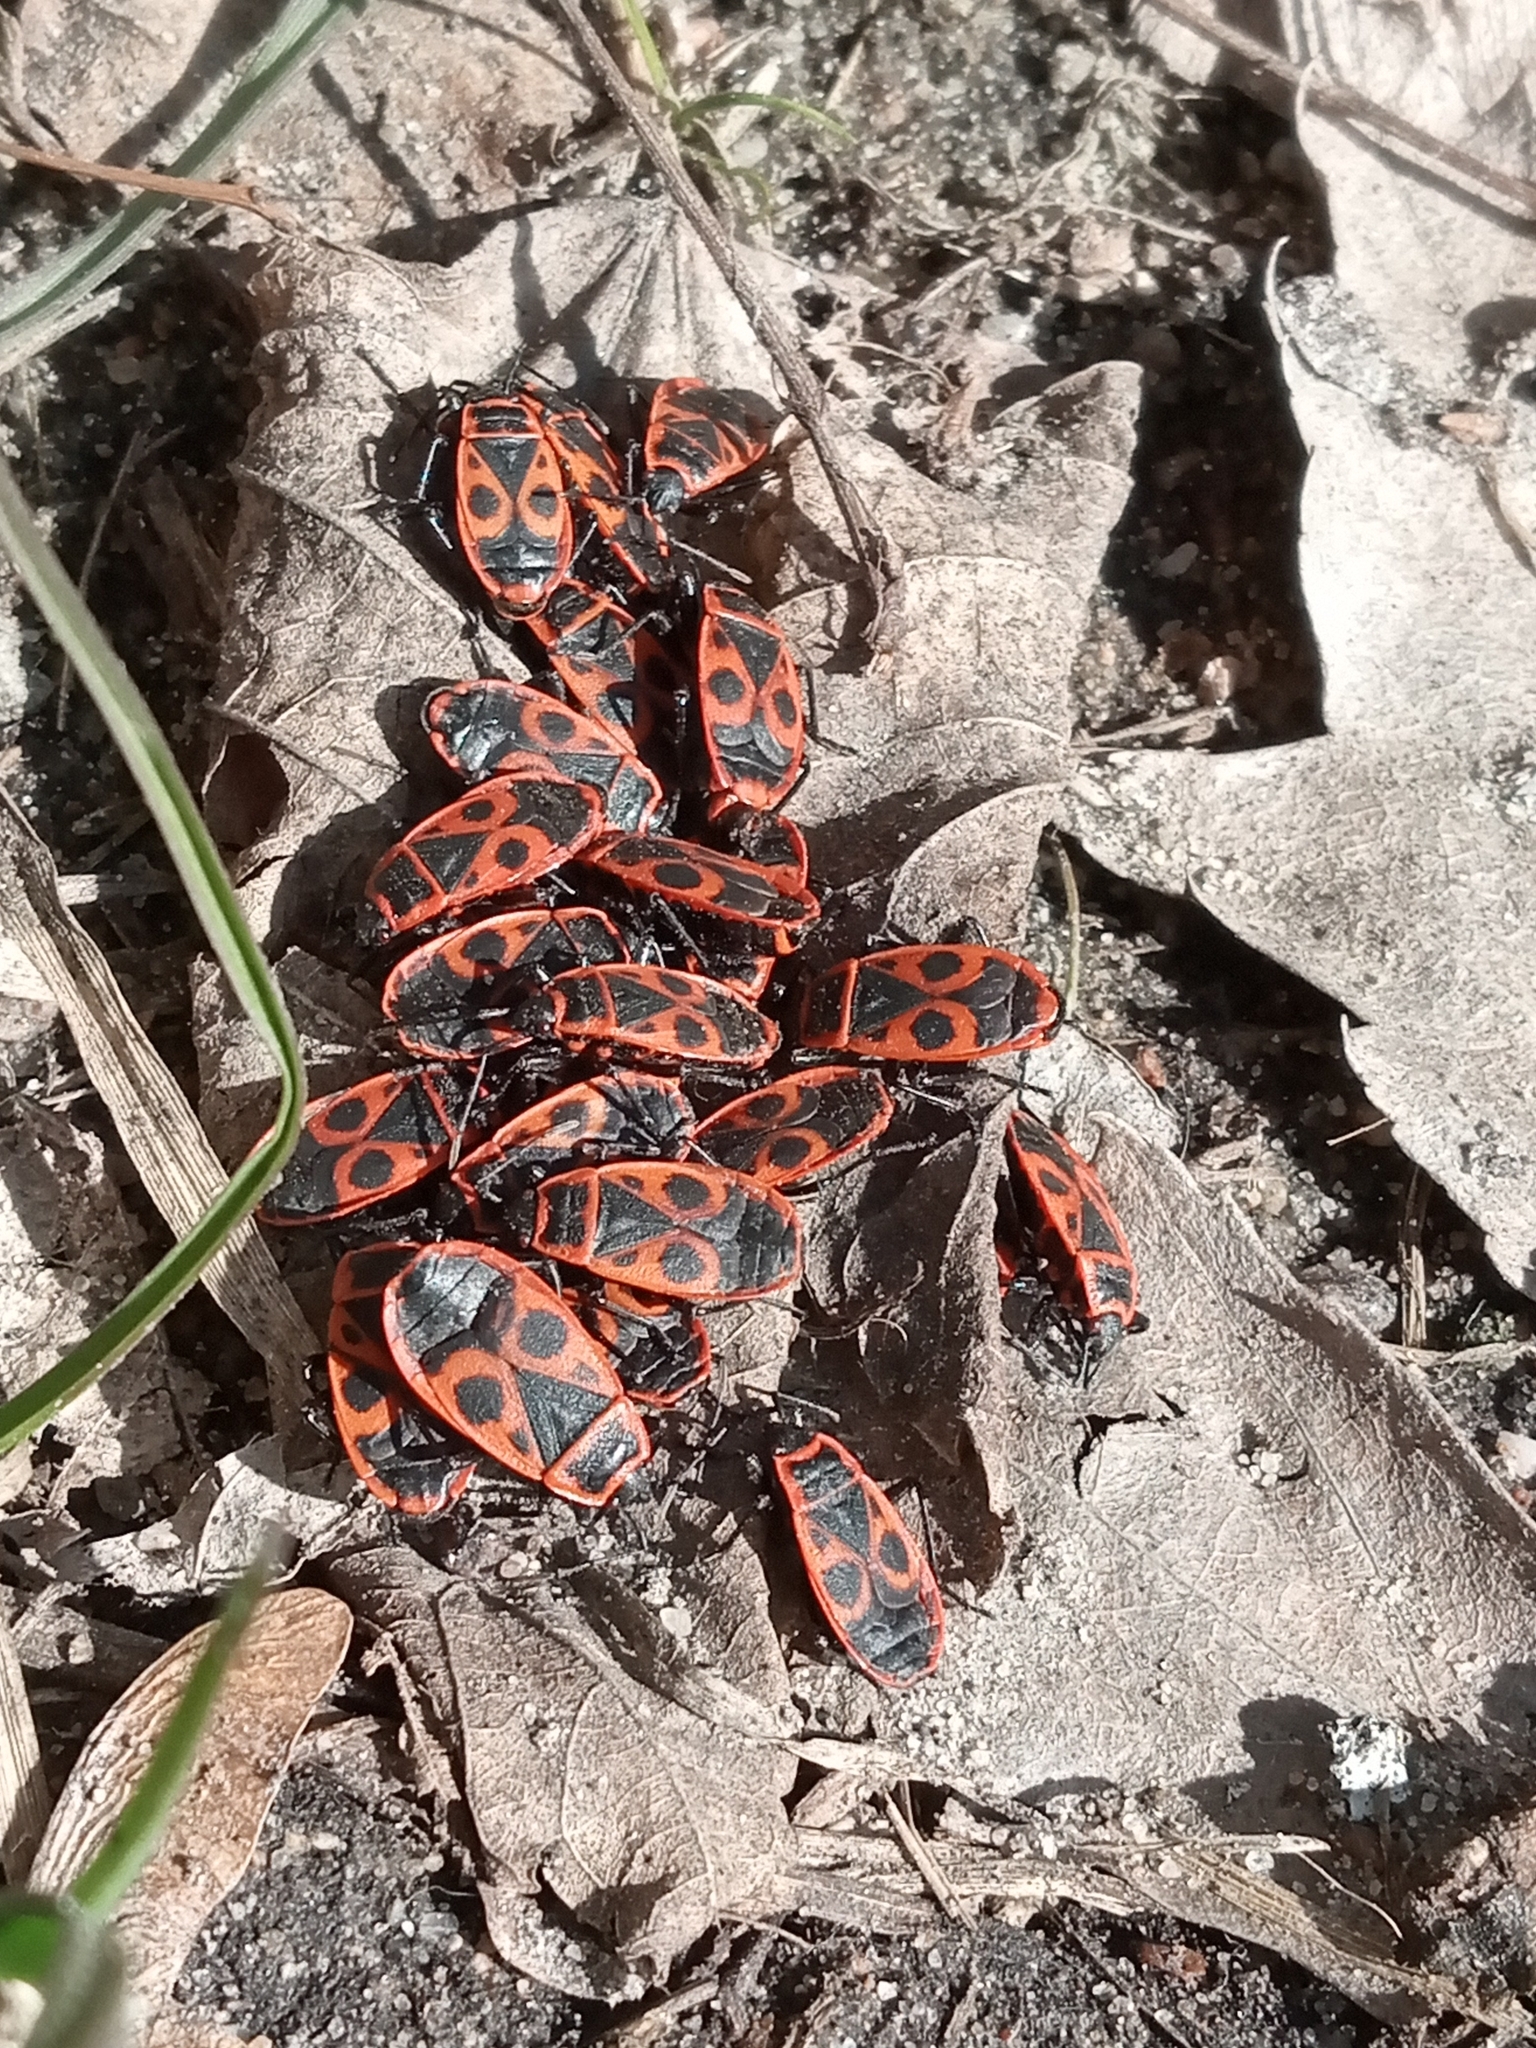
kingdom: Animalia
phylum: Arthropoda
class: Insecta
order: Hemiptera
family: Pyrrhocoridae
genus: Pyrrhocoris
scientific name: Pyrrhocoris apterus
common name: Firebug
